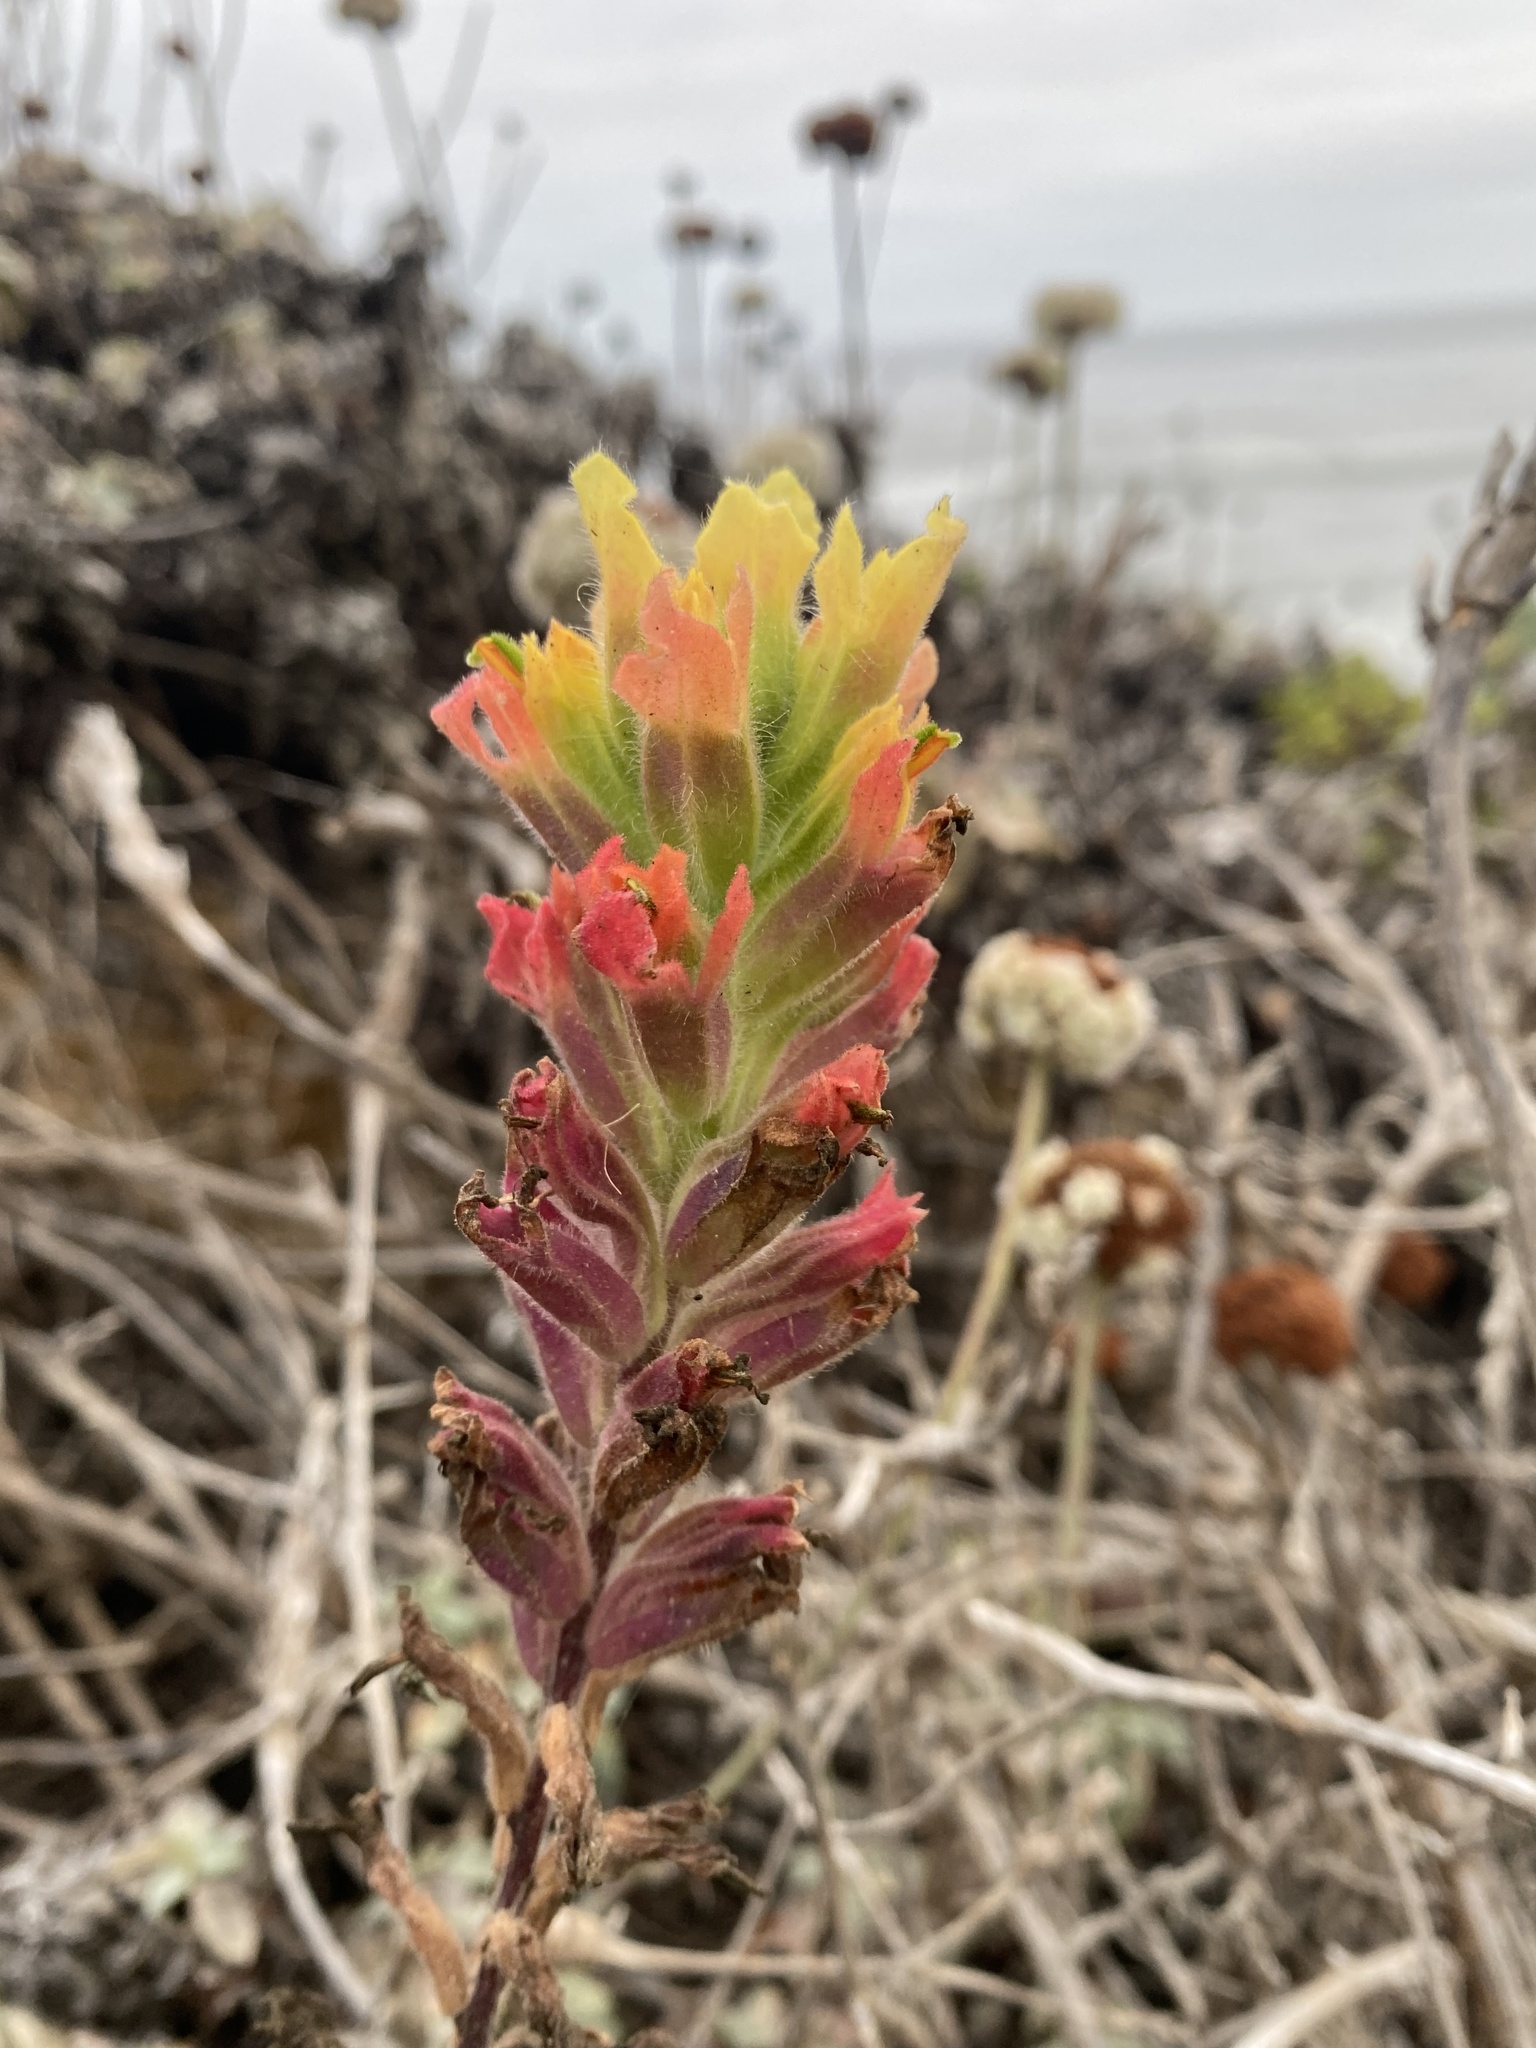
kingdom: Plantae
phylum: Tracheophyta
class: Magnoliopsida
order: Lamiales
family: Orobanchaceae
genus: Castilleja
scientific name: Castilleja wightii
